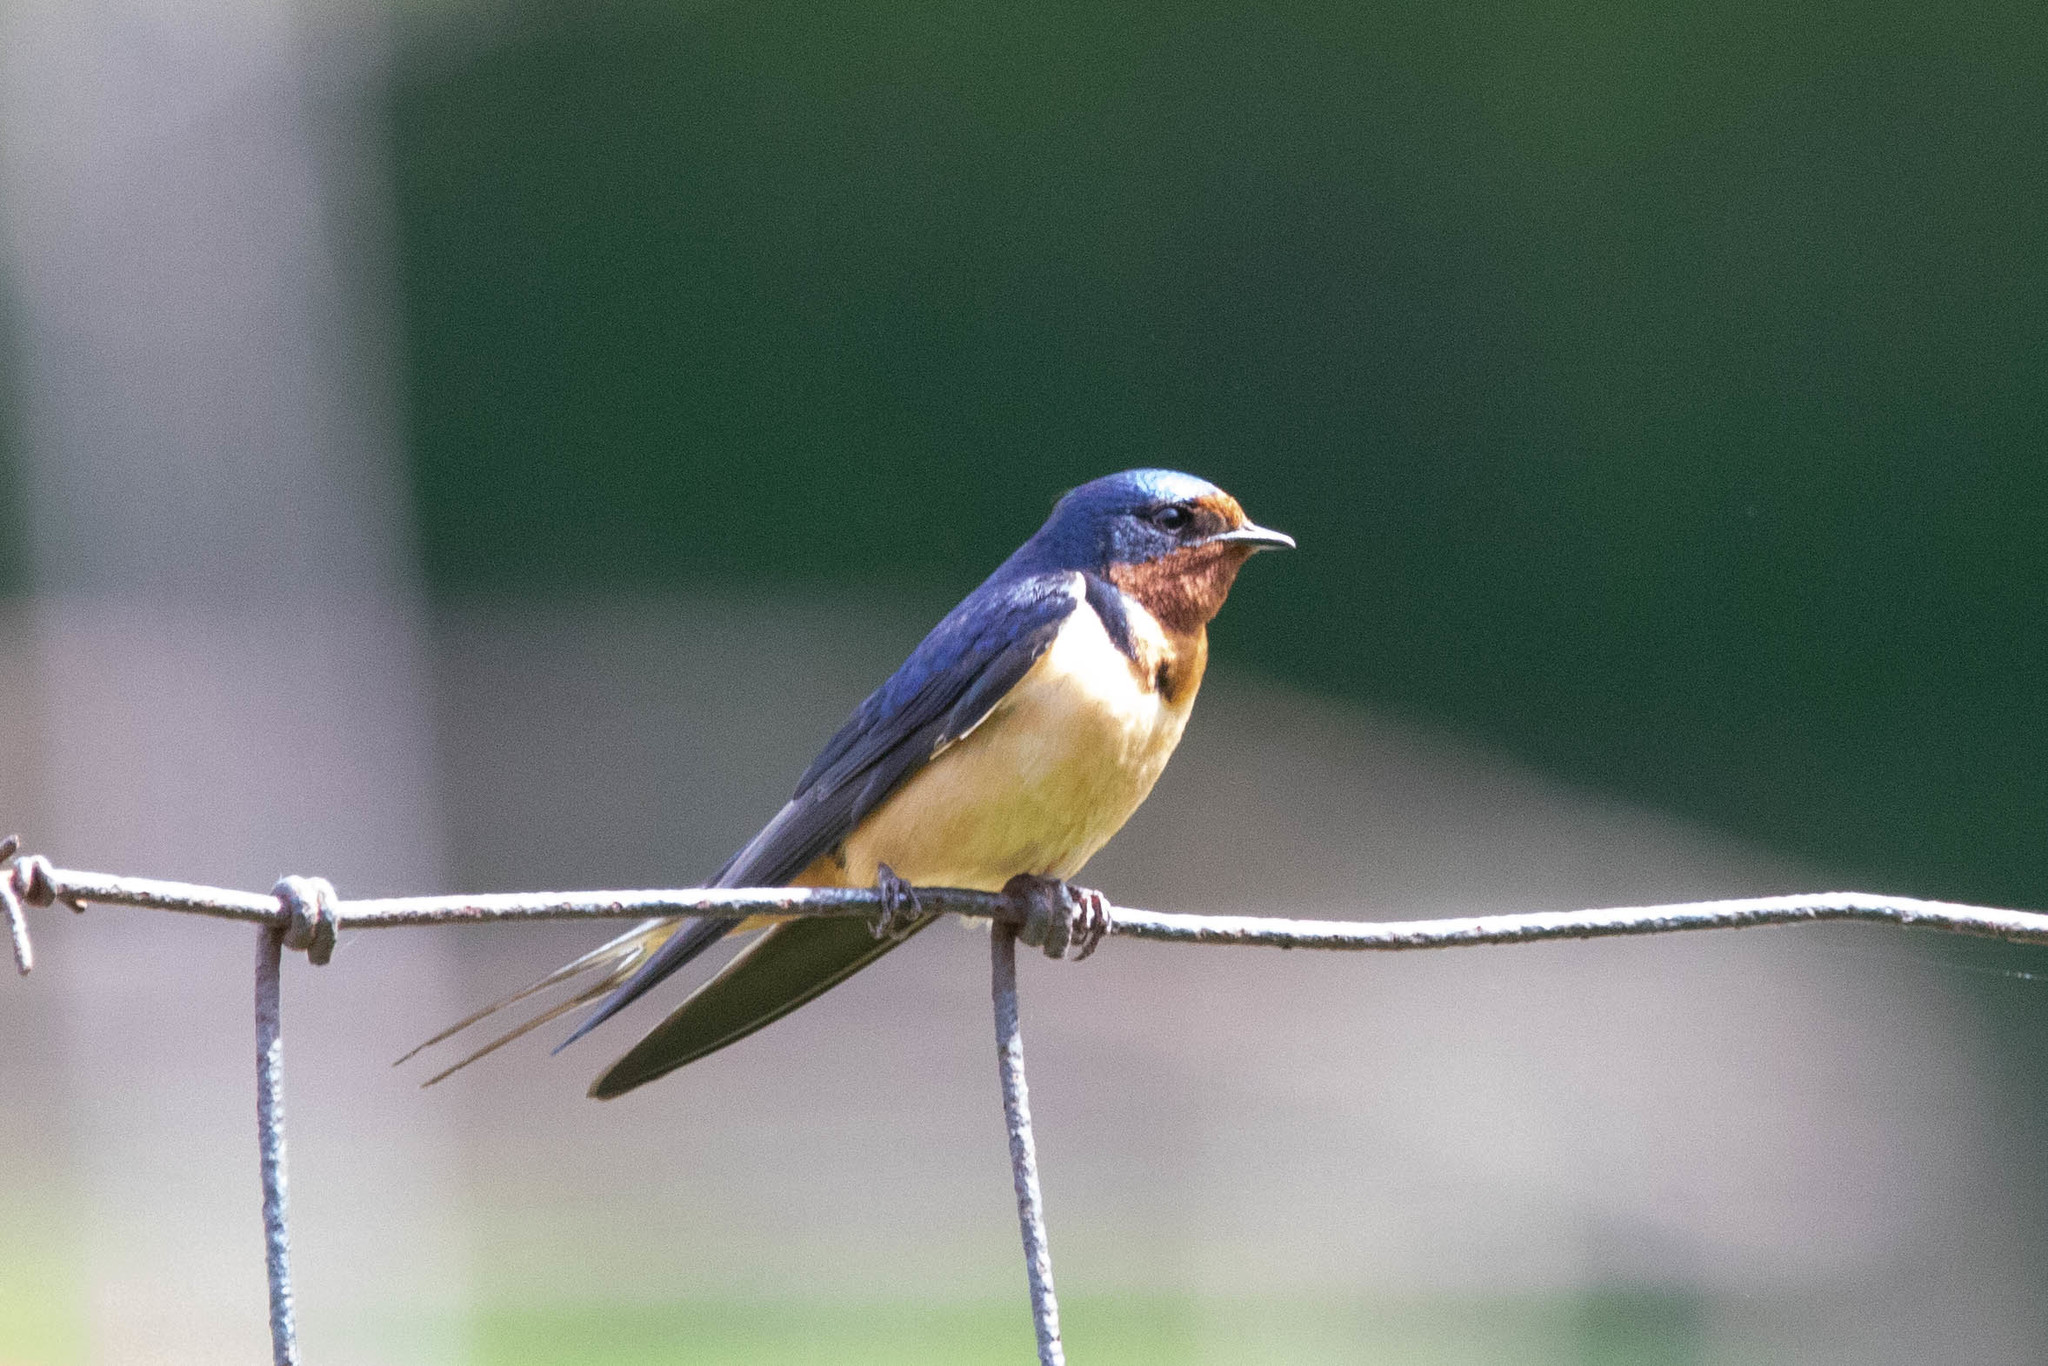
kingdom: Animalia
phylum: Chordata
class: Aves
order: Passeriformes
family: Hirundinidae
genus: Hirundo
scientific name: Hirundo rustica
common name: Barn swallow
